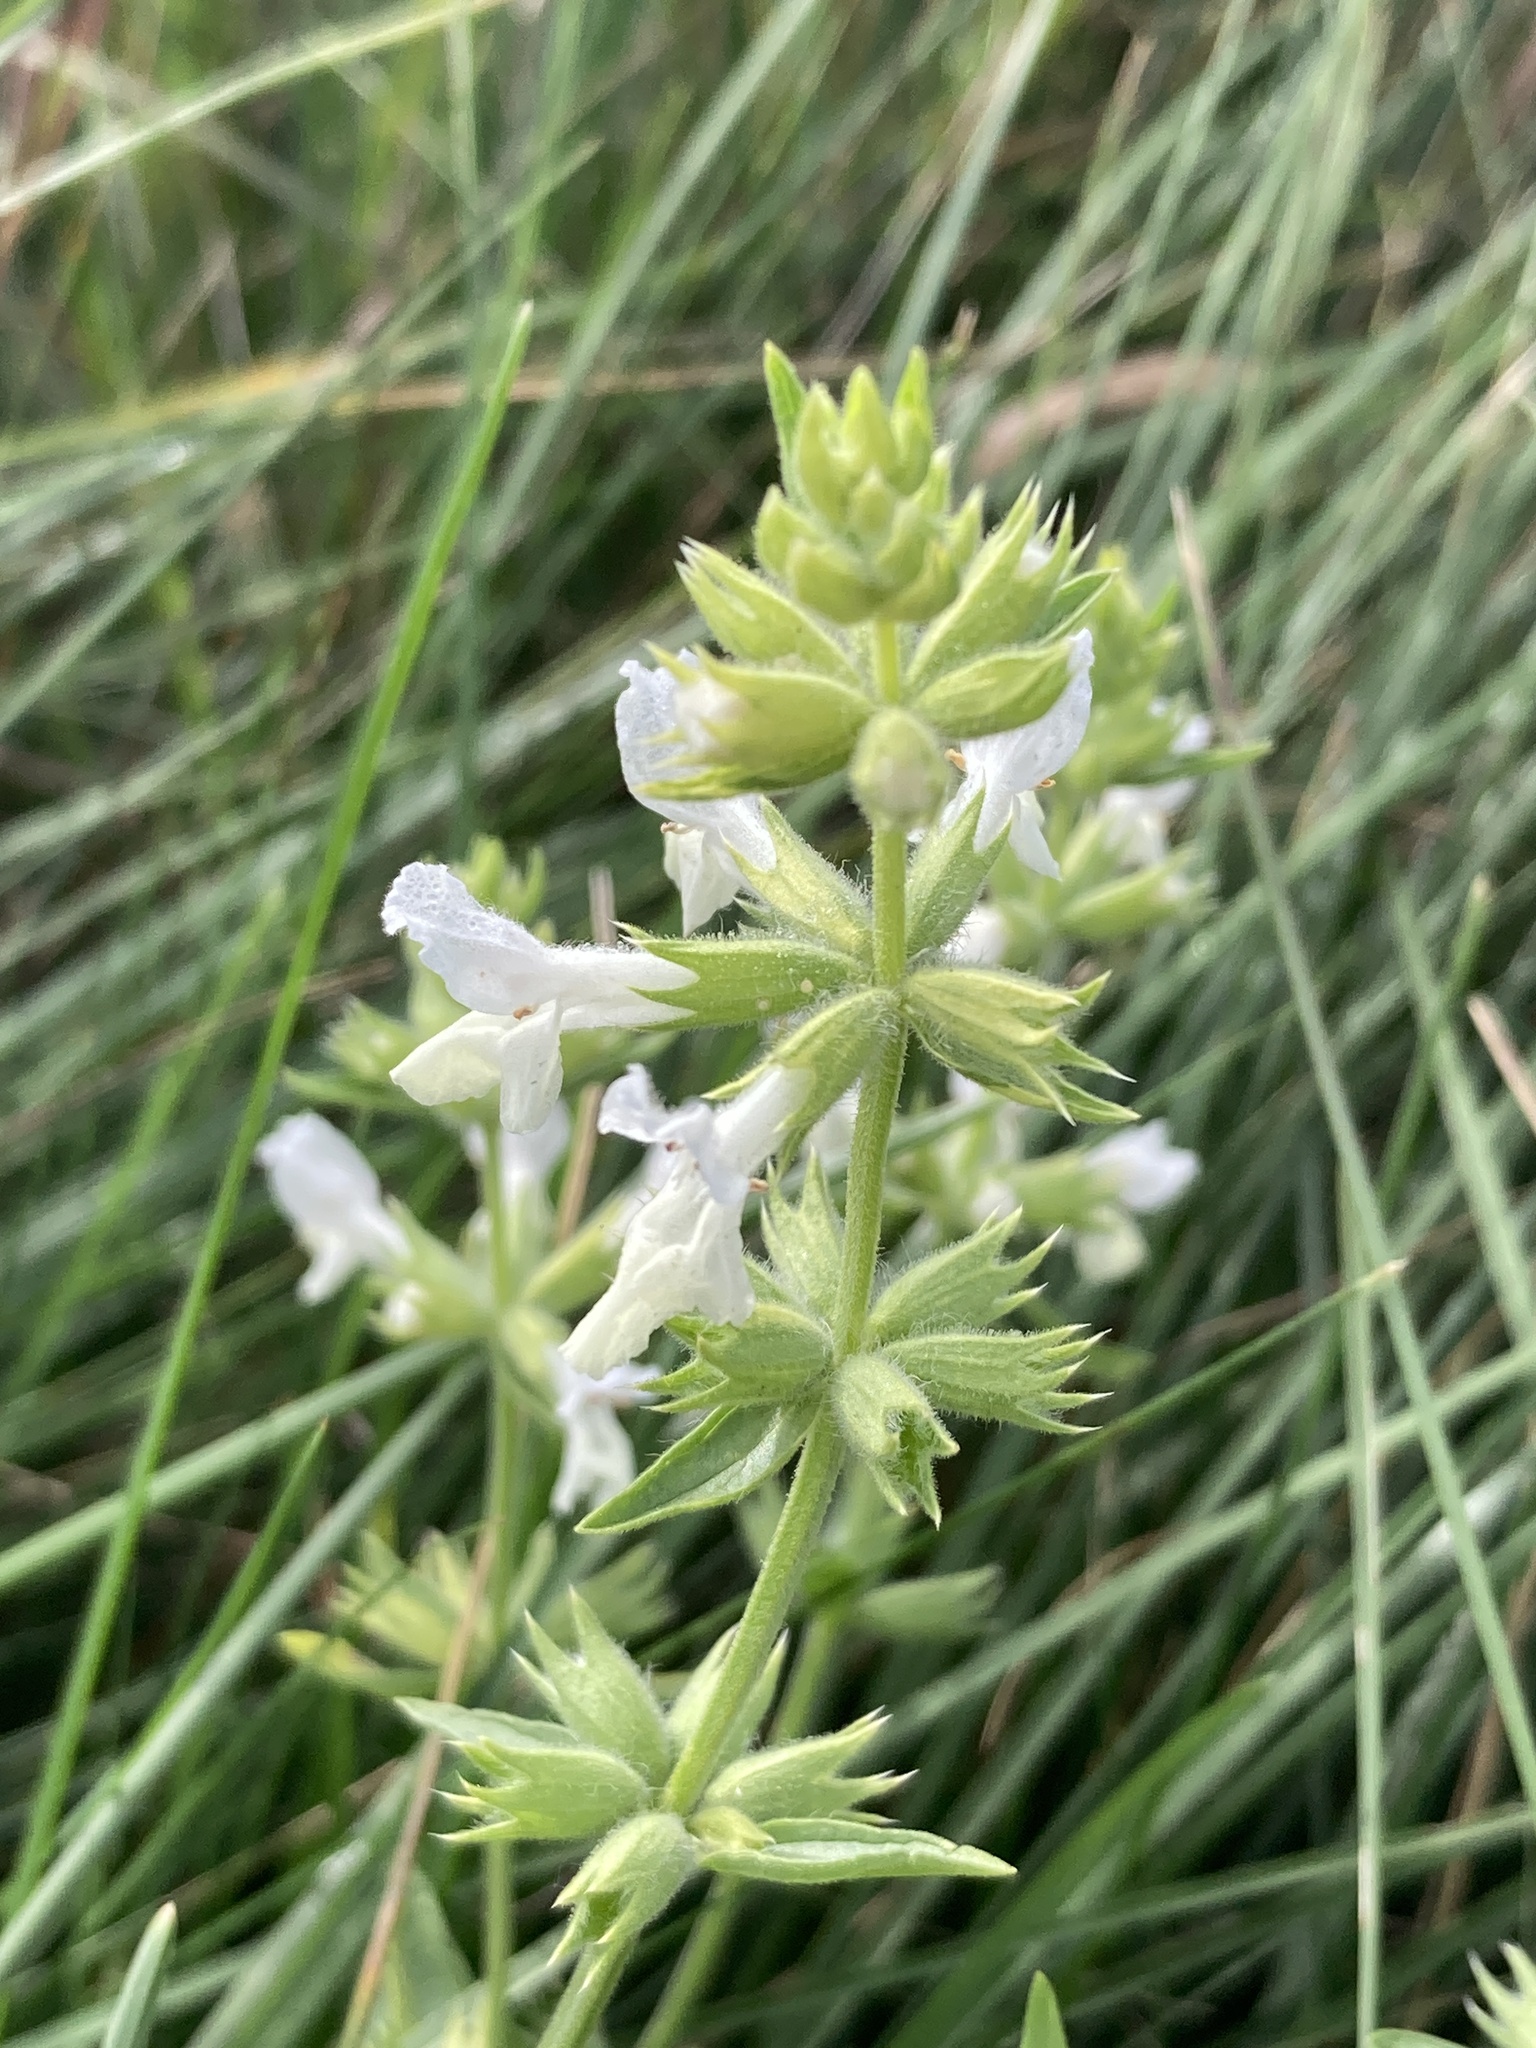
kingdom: Plantae
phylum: Tracheophyta
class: Magnoliopsida
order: Lamiales
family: Lamiaceae
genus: Stachys
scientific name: Stachys annua
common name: Annual yellow-woundwort
